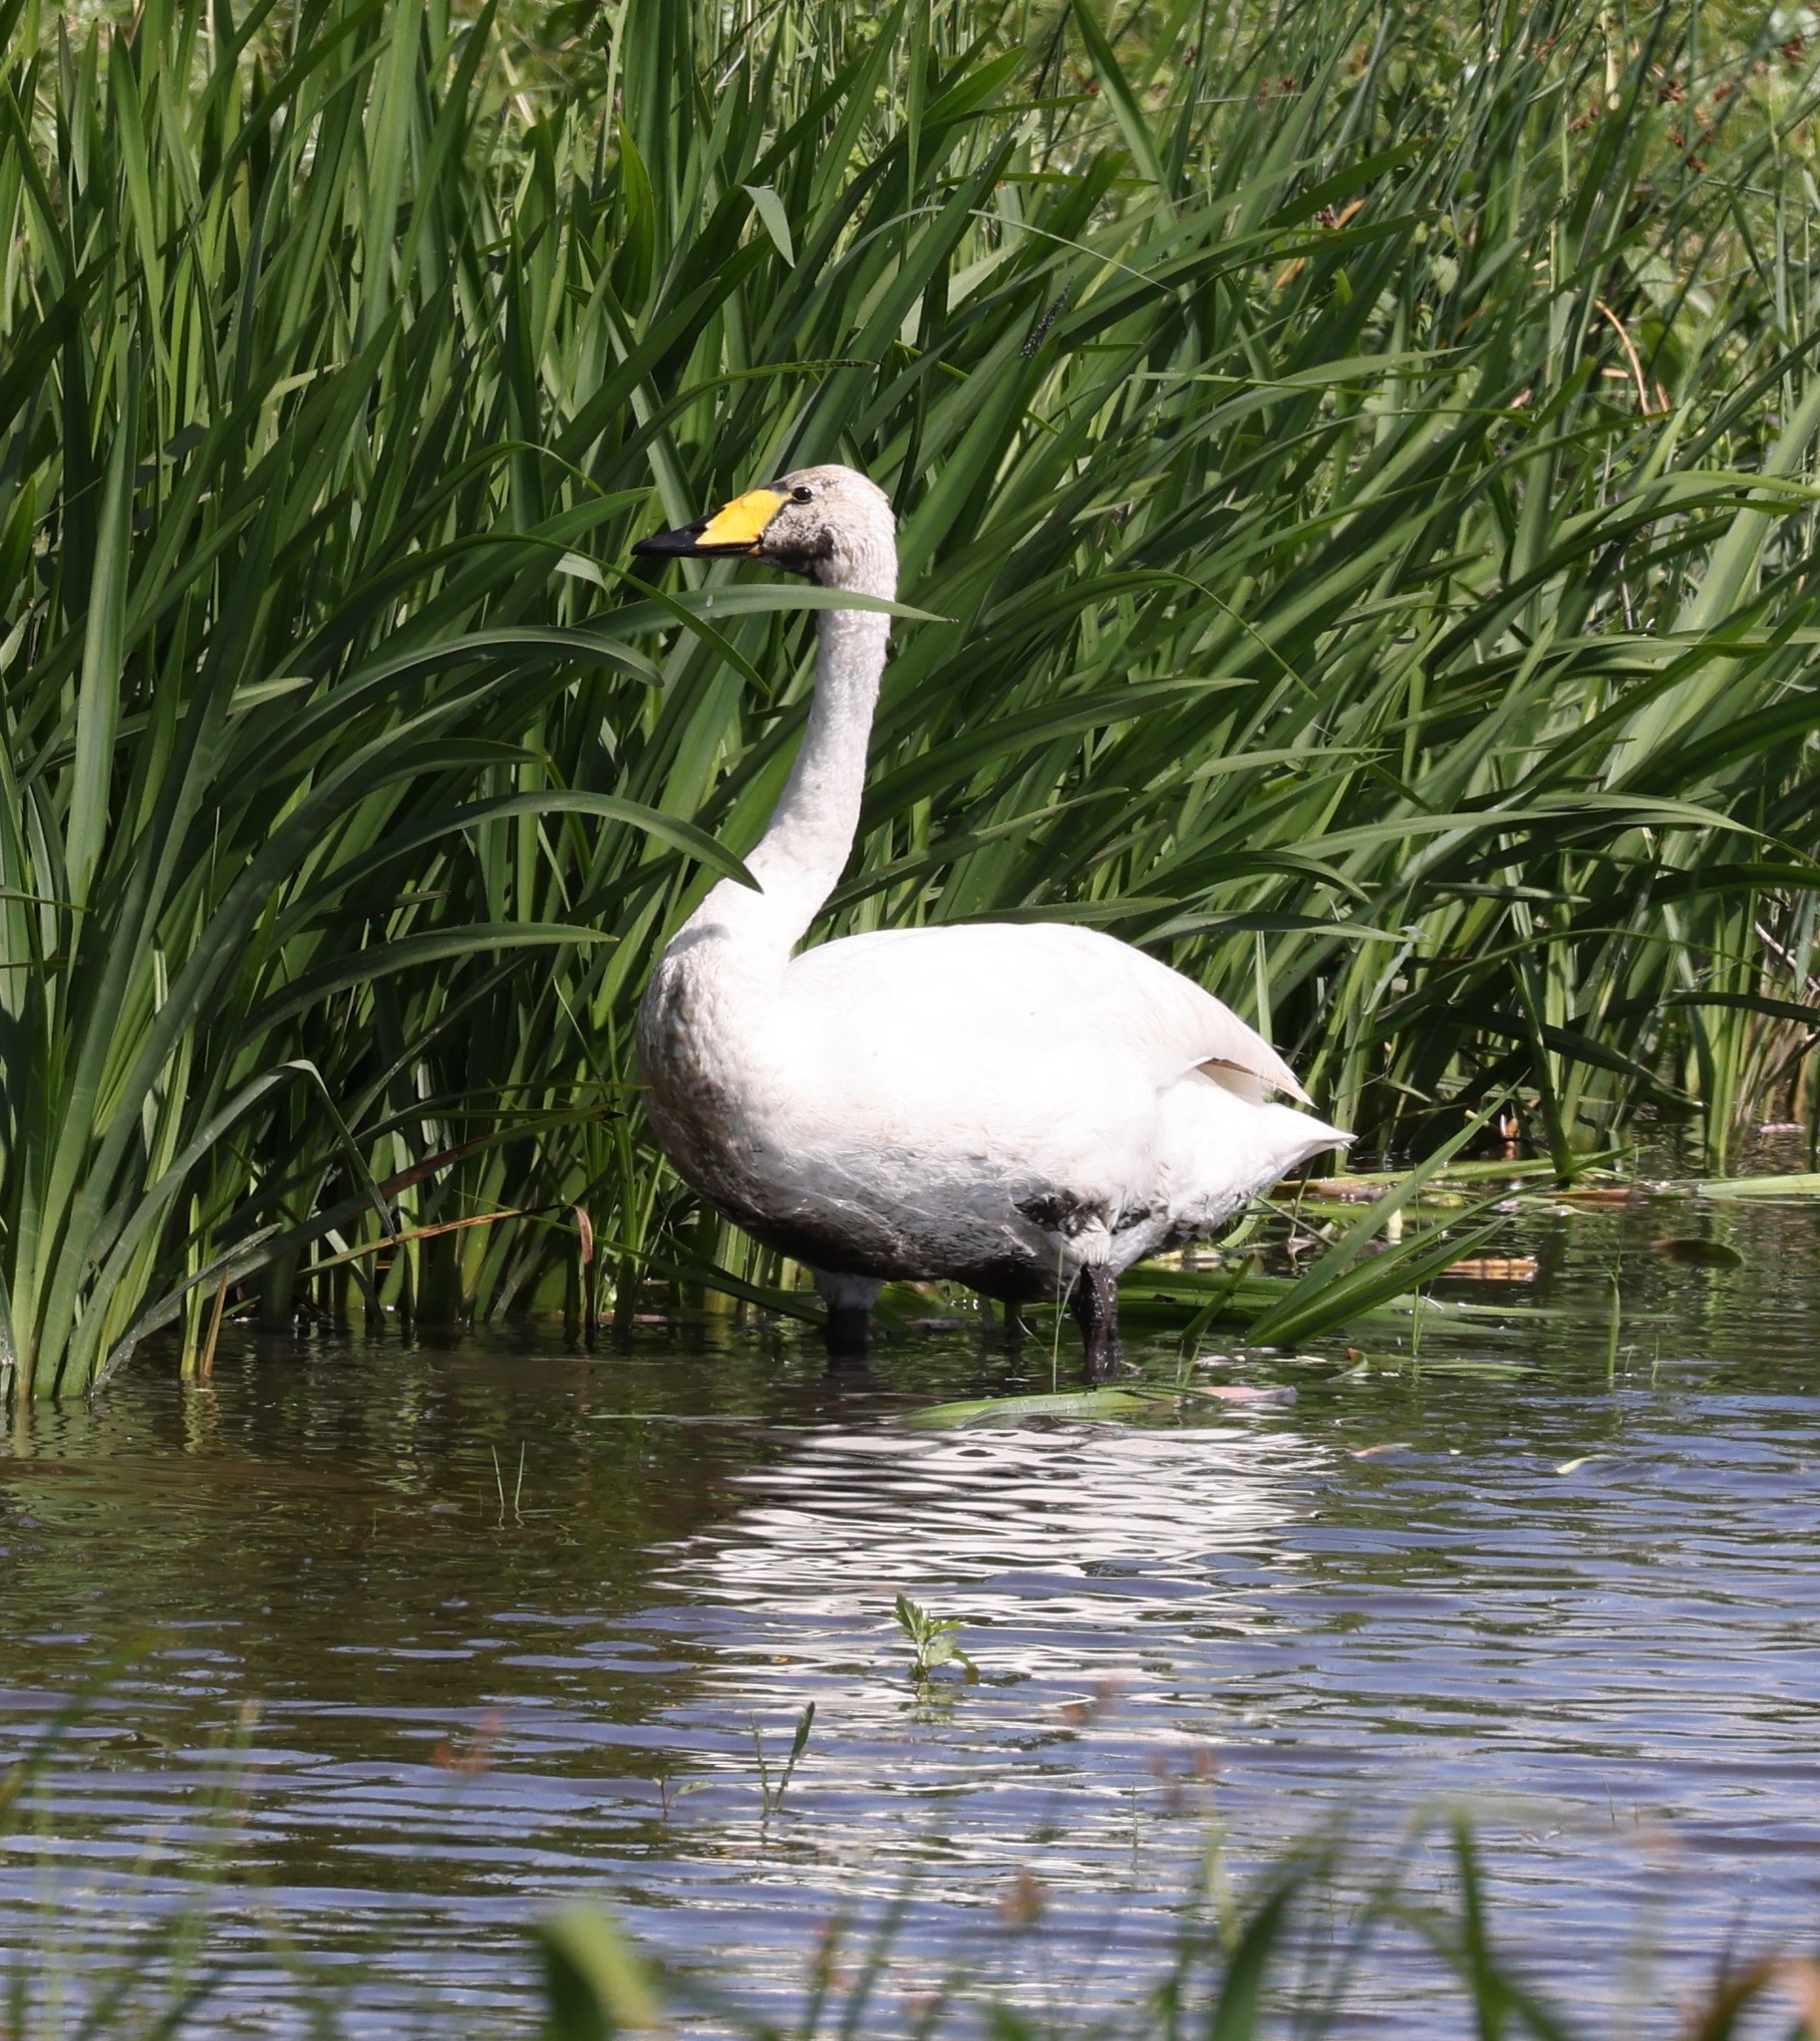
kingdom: Animalia
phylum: Chordata
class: Aves
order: Anseriformes
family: Anatidae
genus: Cygnus
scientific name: Cygnus cygnus
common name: Whooper swan
